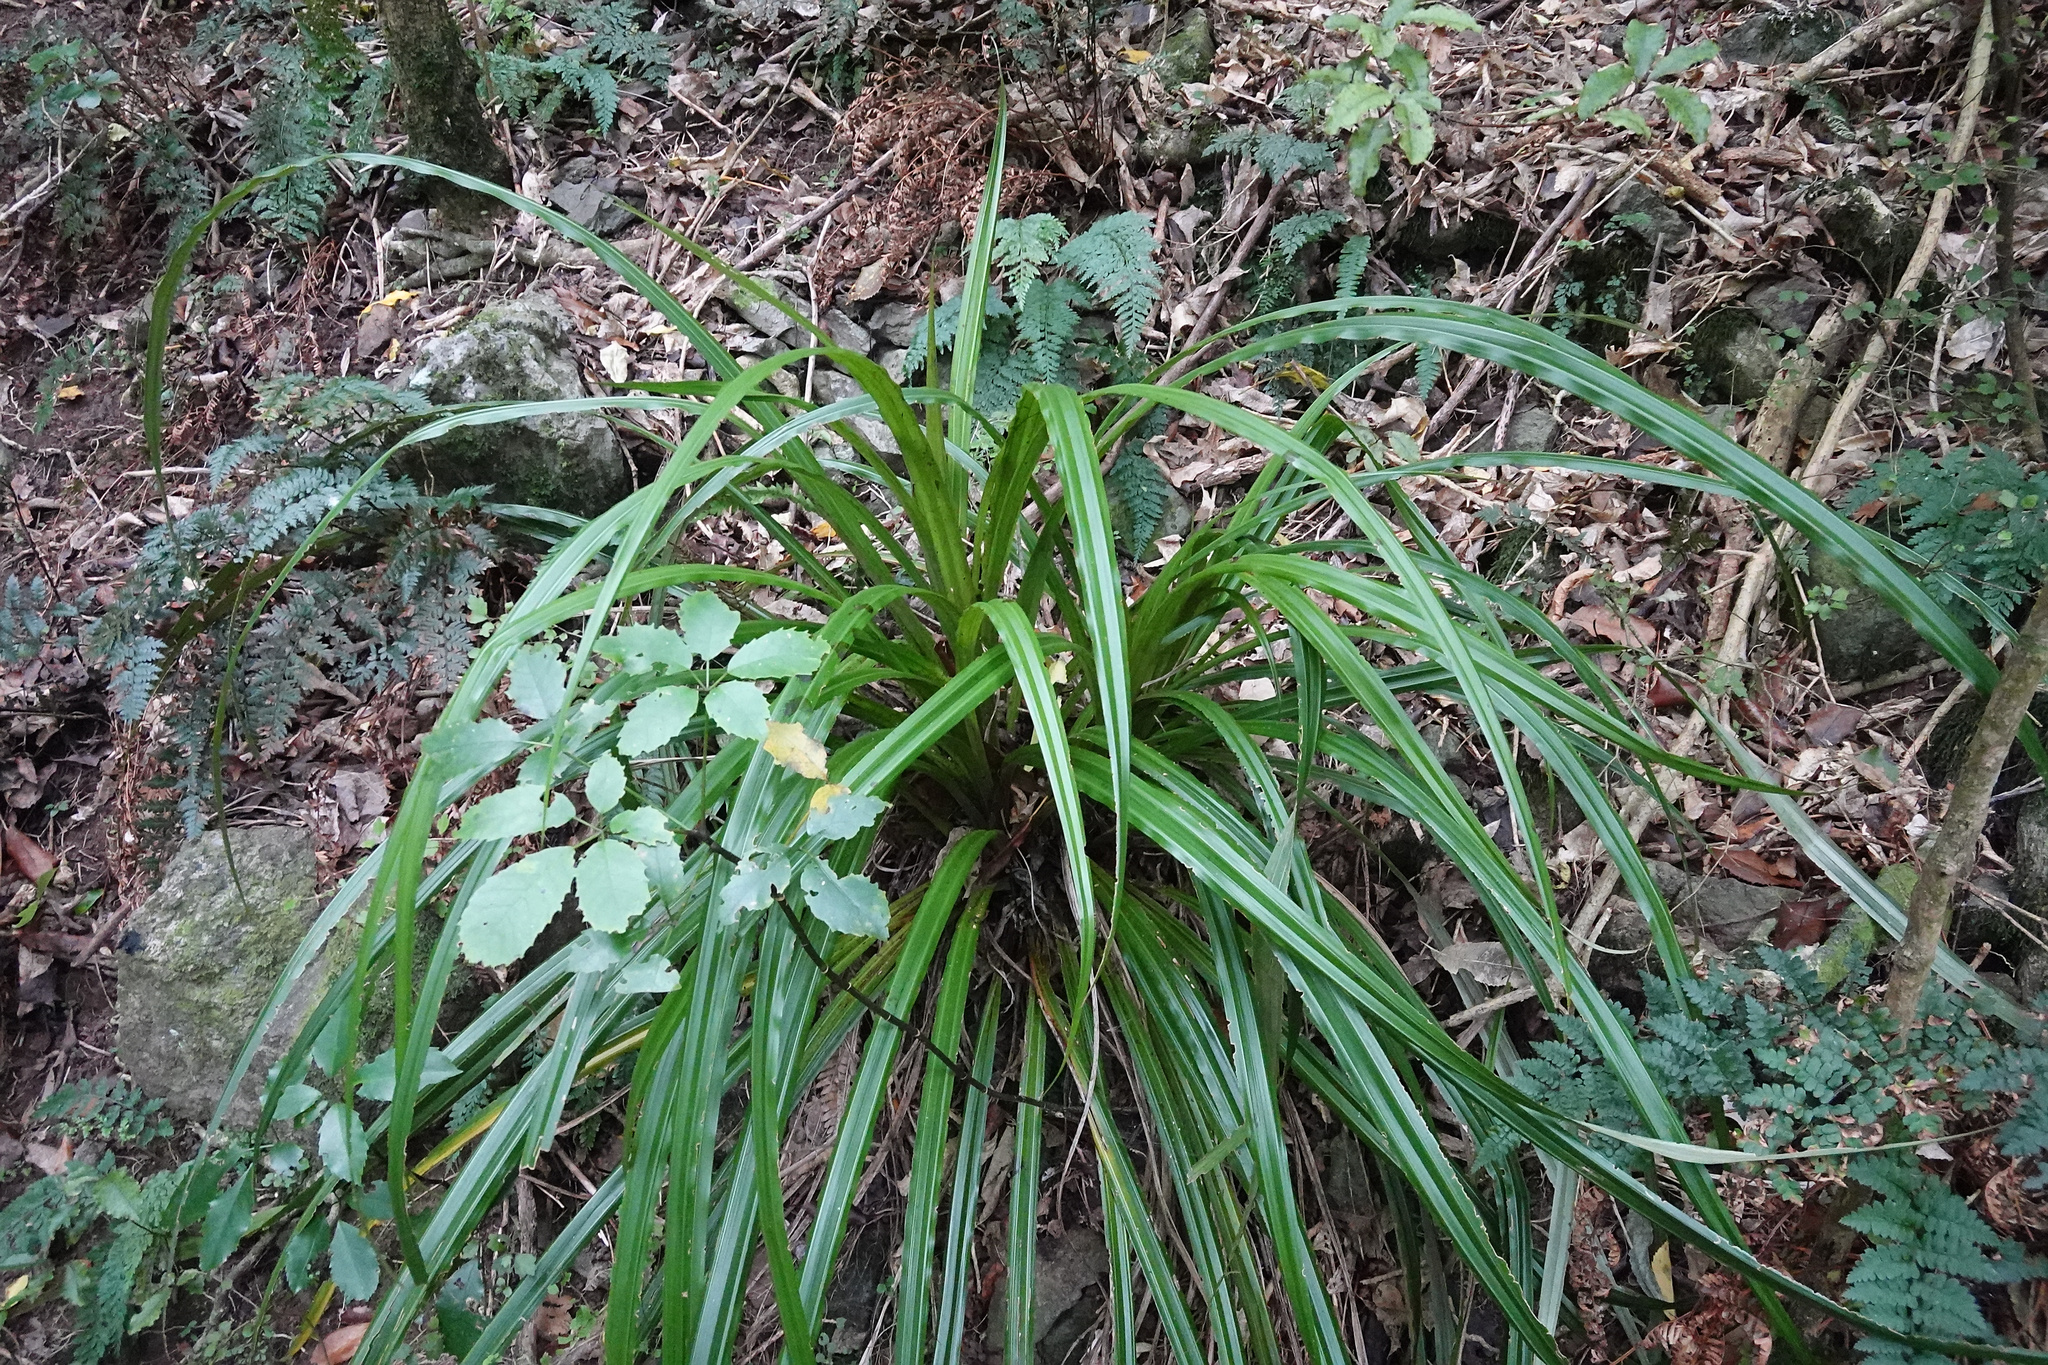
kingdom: Plantae
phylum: Tracheophyta
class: Liliopsida
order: Asparagales
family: Asteliaceae
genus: Astelia
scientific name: Astelia fragrans
